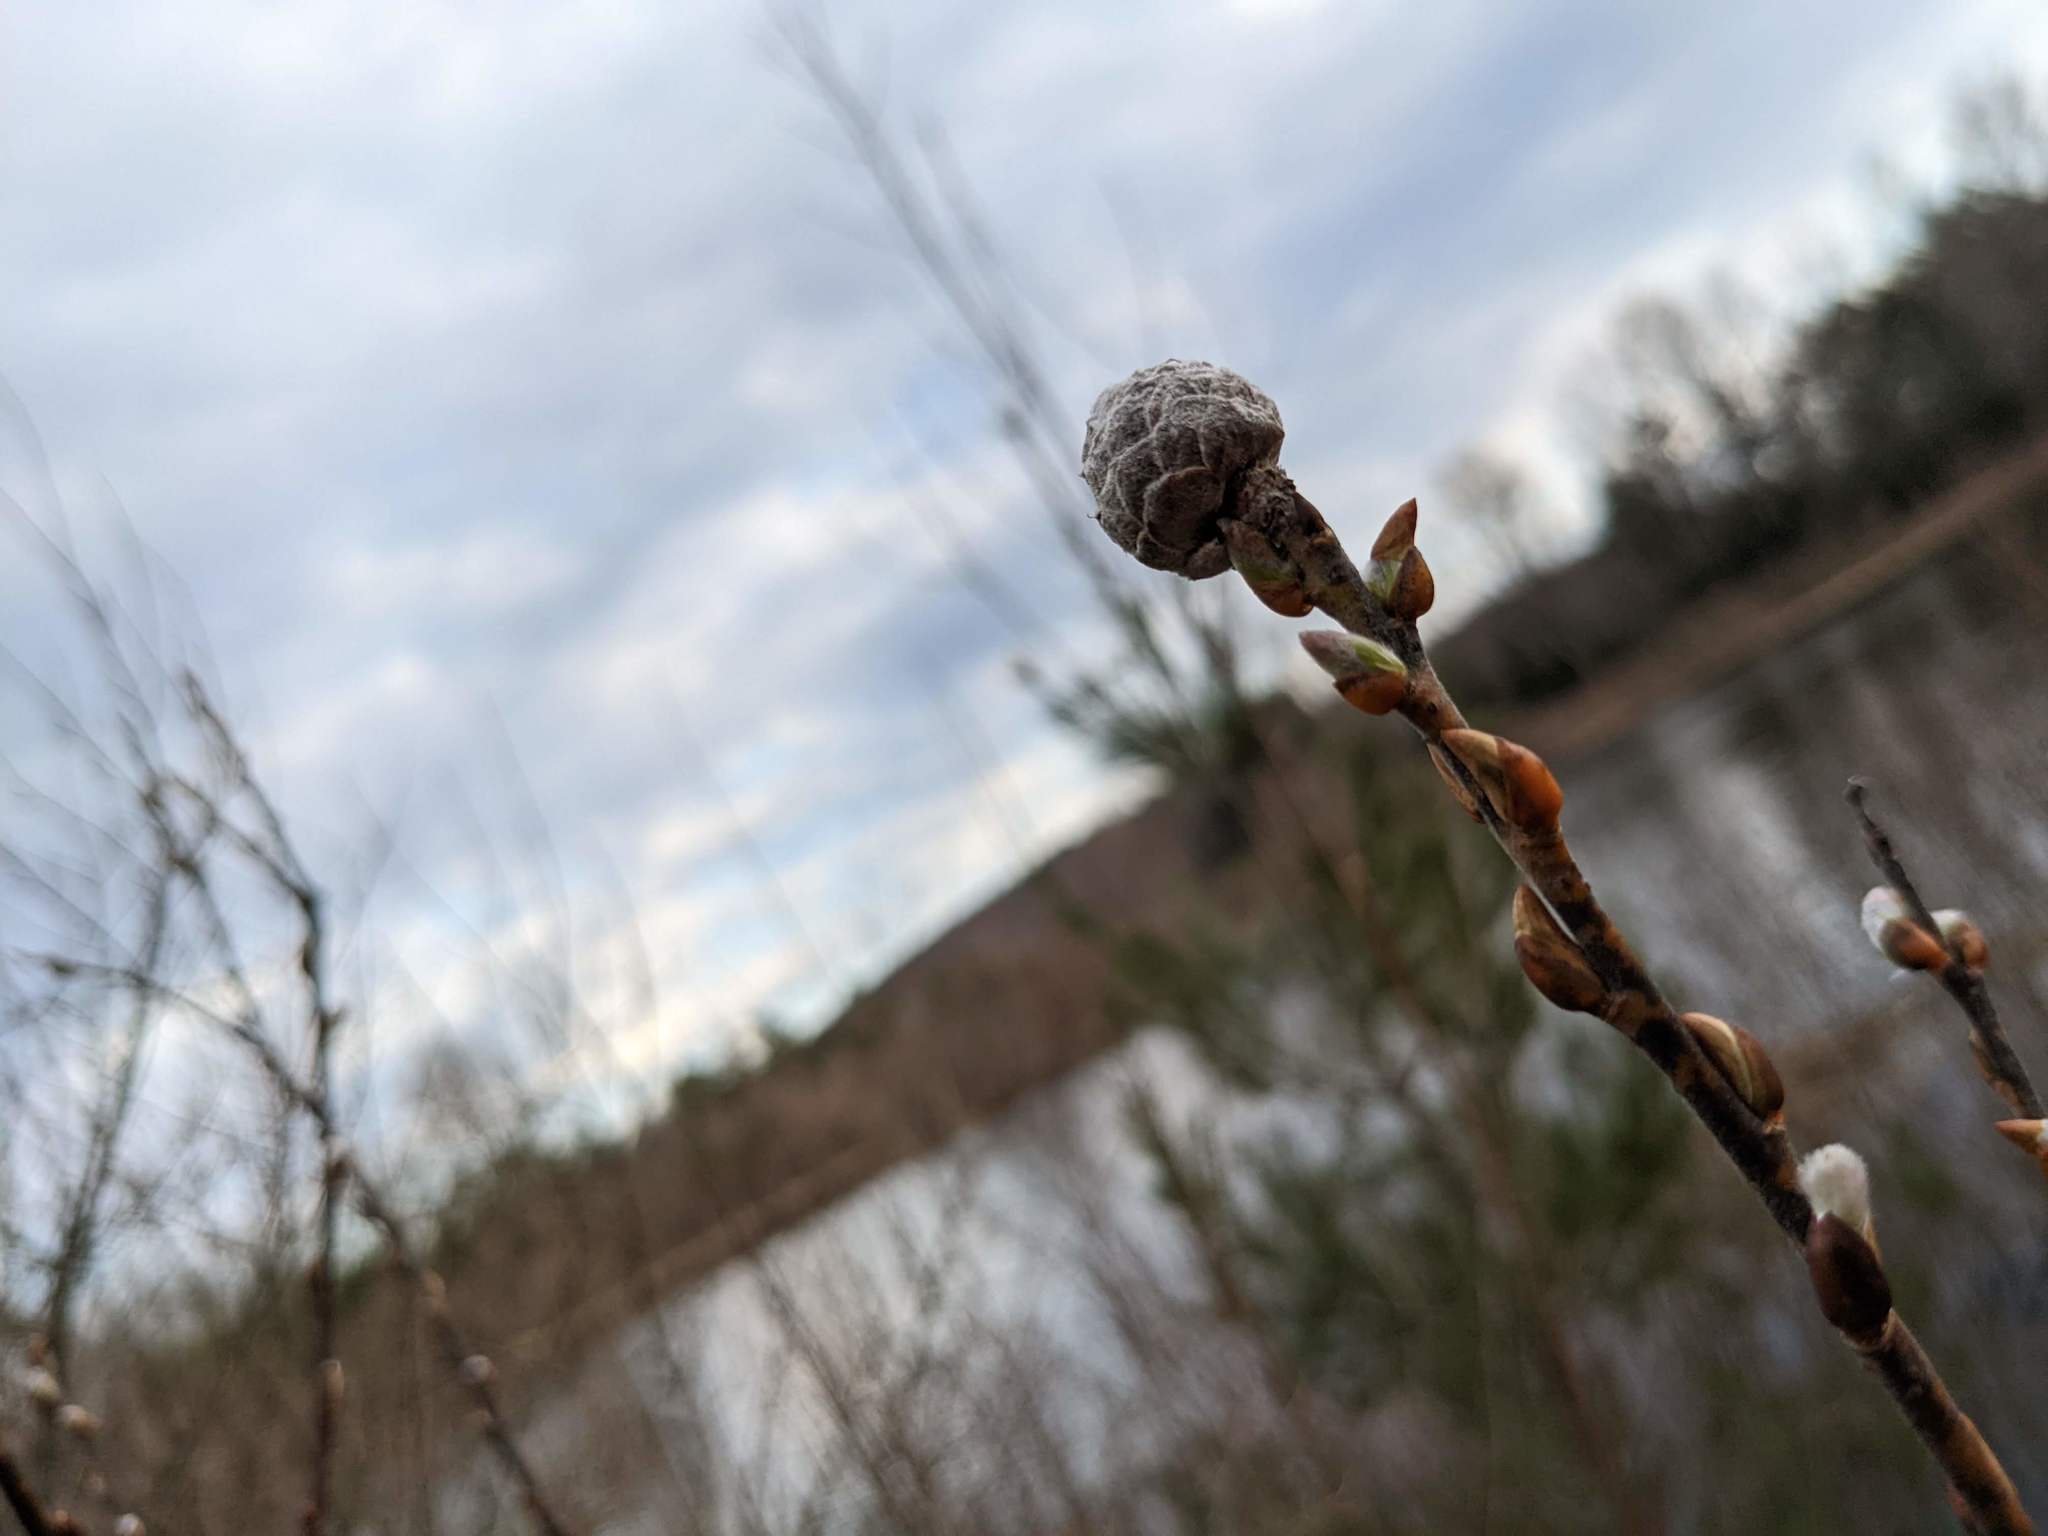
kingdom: Animalia
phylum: Arthropoda
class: Insecta
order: Diptera
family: Cecidomyiidae
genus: Rabdophaga
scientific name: Rabdophaga strobiloides
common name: Willow pinecone gall midge
